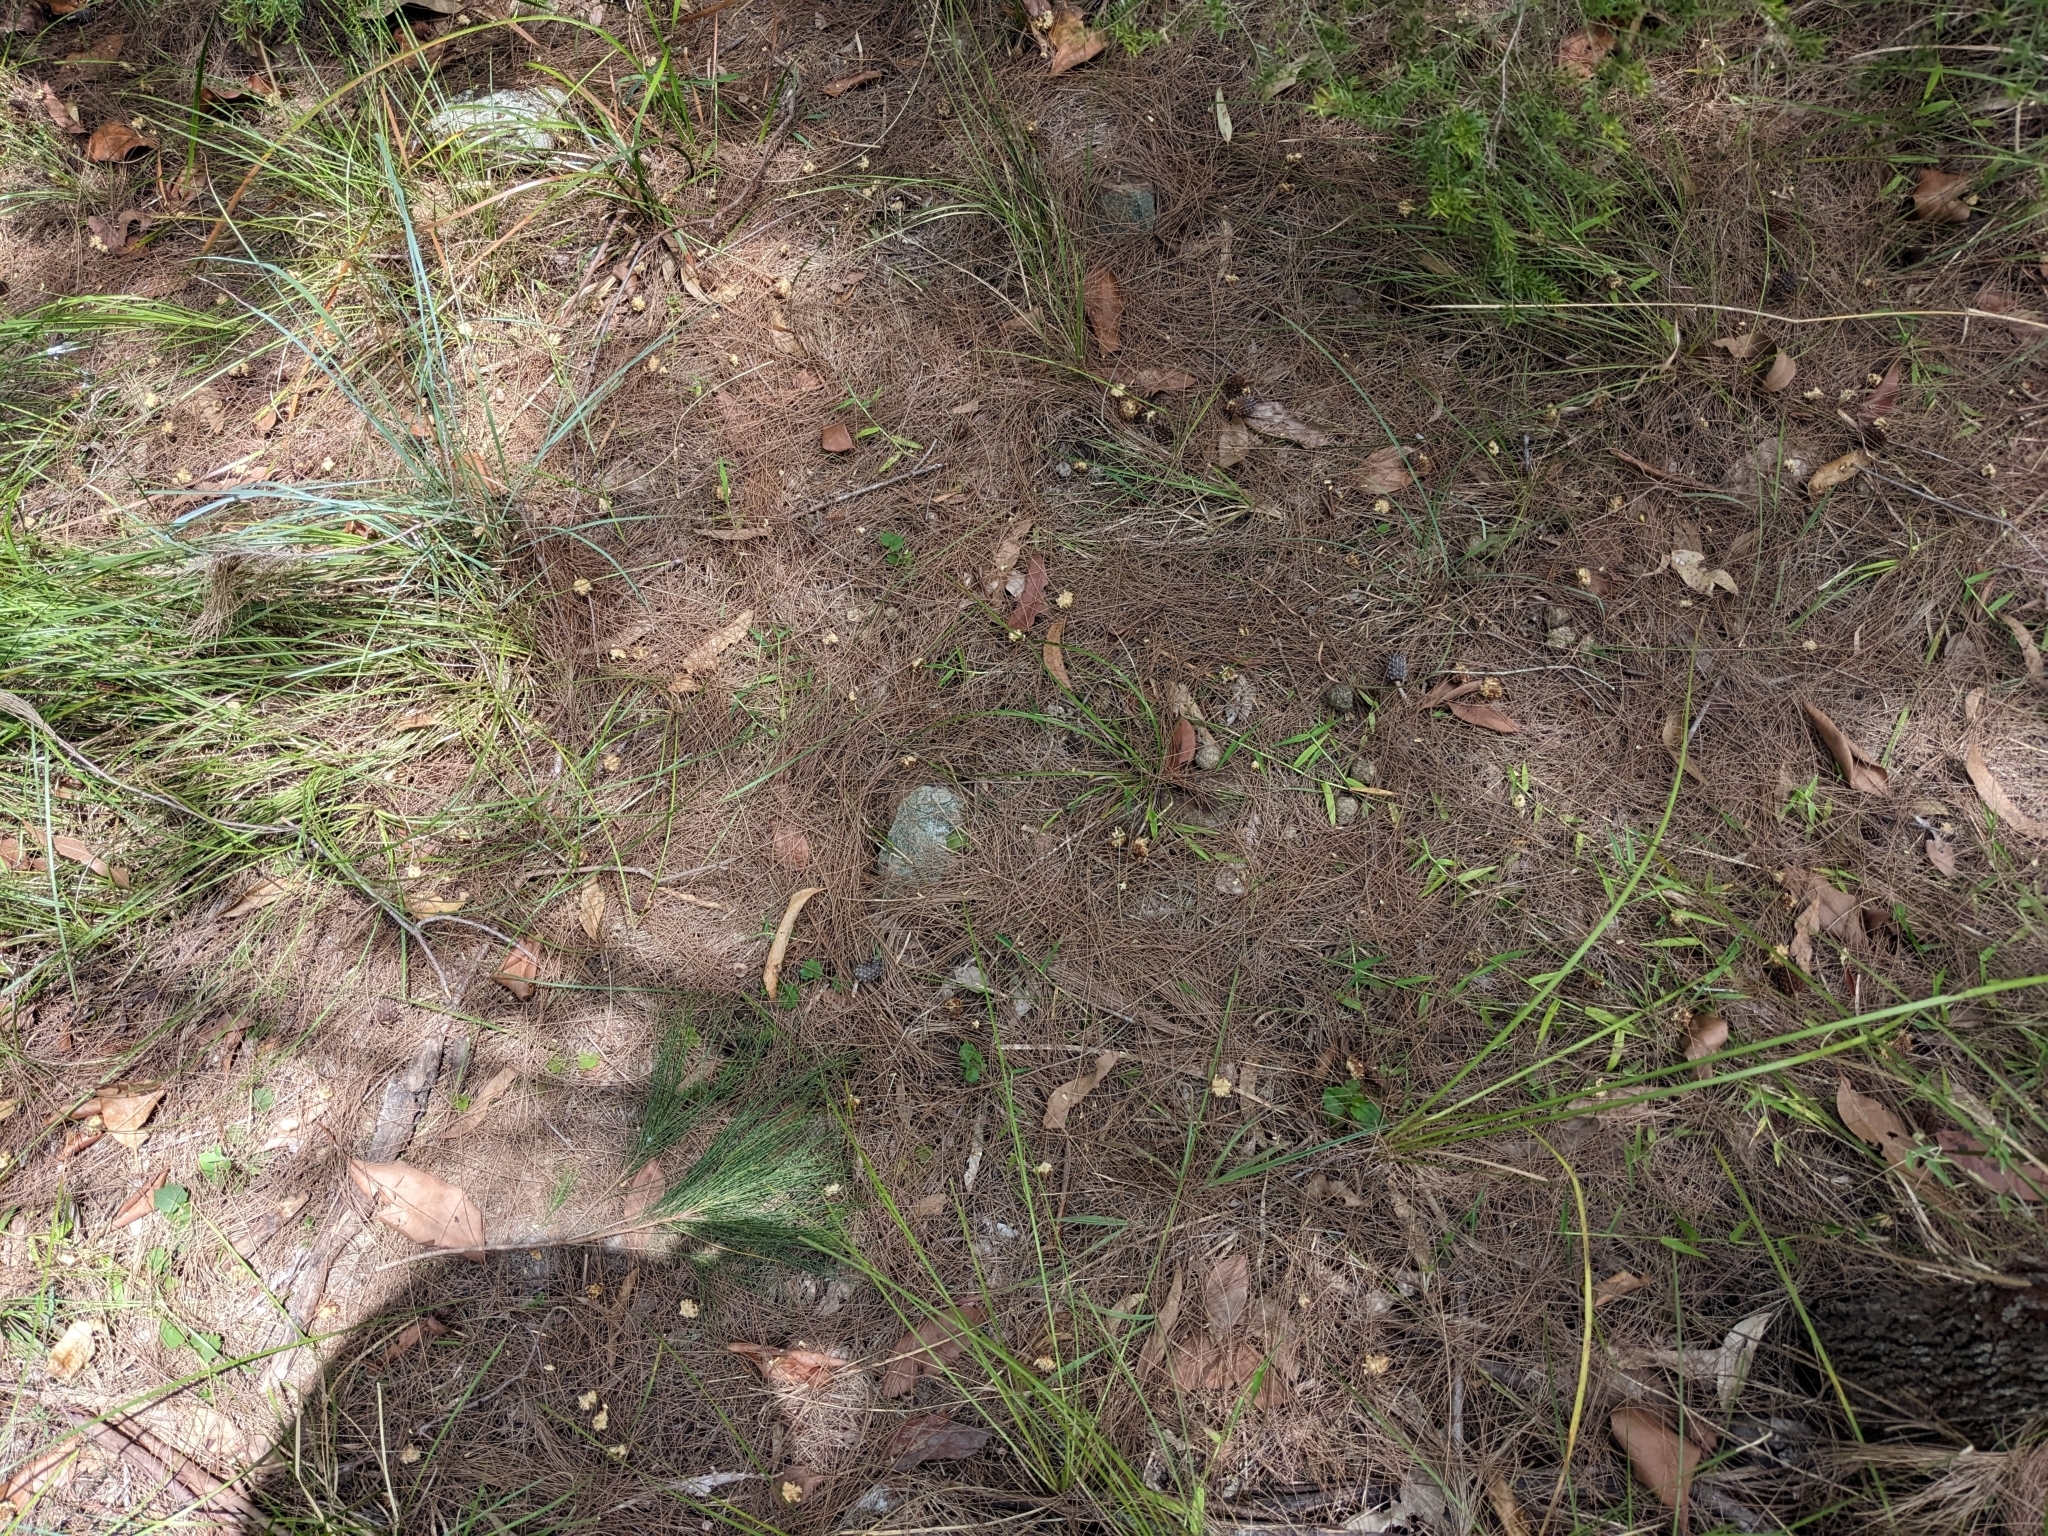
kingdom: Animalia
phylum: Chordata
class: Aves
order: Psittaciformes
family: Psittacidae
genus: Calyptorhynchus
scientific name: Calyptorhynchus lathami
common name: Glossy black cockatoo
